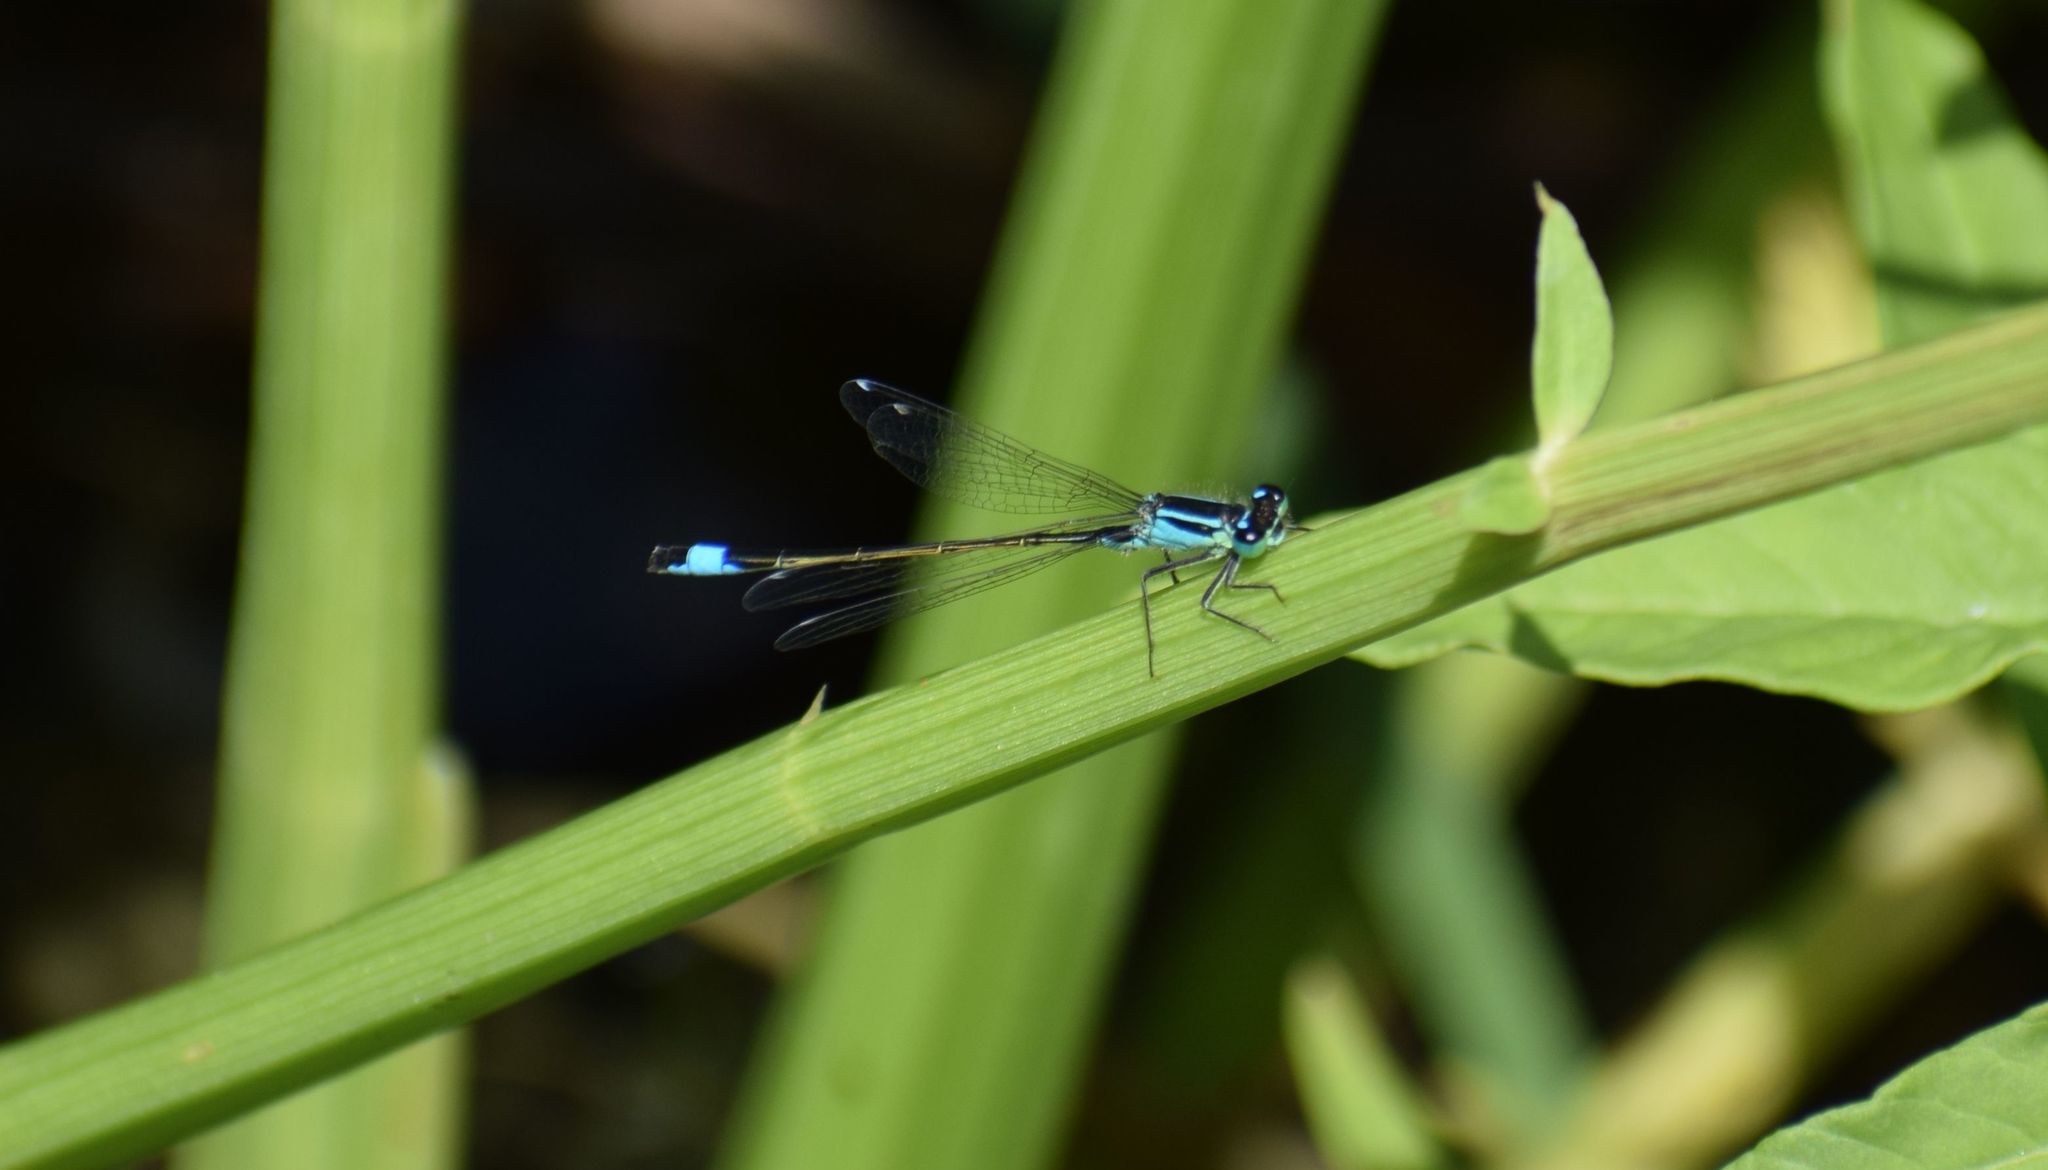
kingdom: Animalia
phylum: Arthropoda
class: Insecta
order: Odonata
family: Coenagrionidae
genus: Ischnura
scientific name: Ischnura elegans
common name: Blue-tailed damselfly
